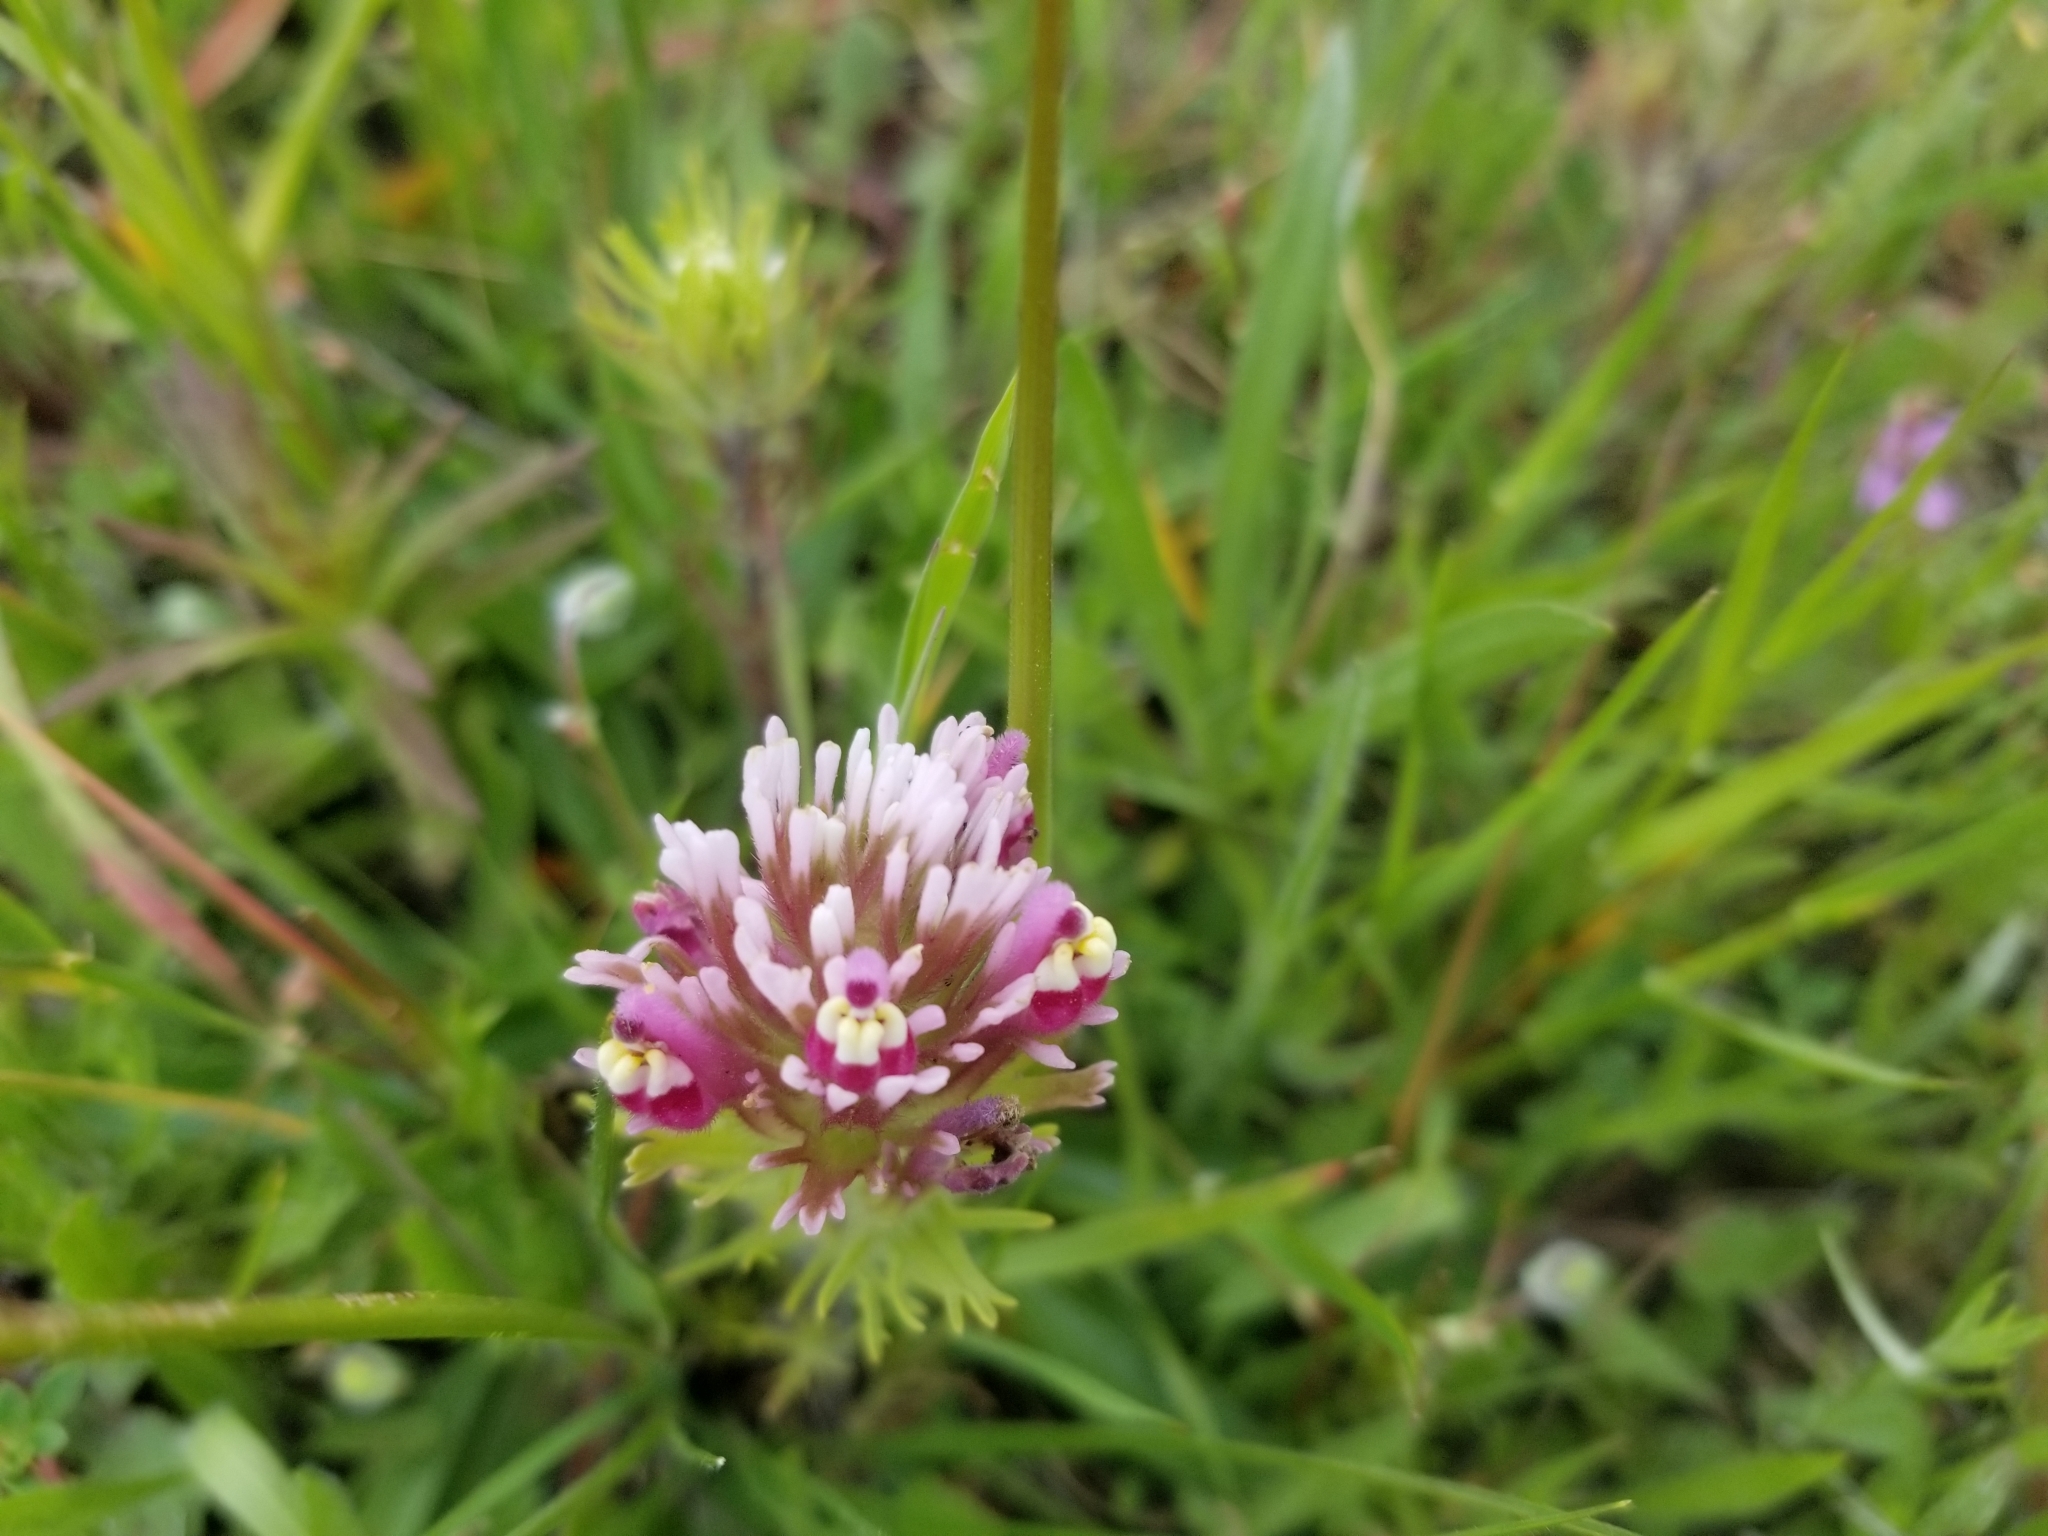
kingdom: Plantae
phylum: Tracheophyta
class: Magnoliopsida
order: Lamiales
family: Orobanchaceae
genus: Castilleja
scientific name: Castilleja exserta
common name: Purple owl-clover
